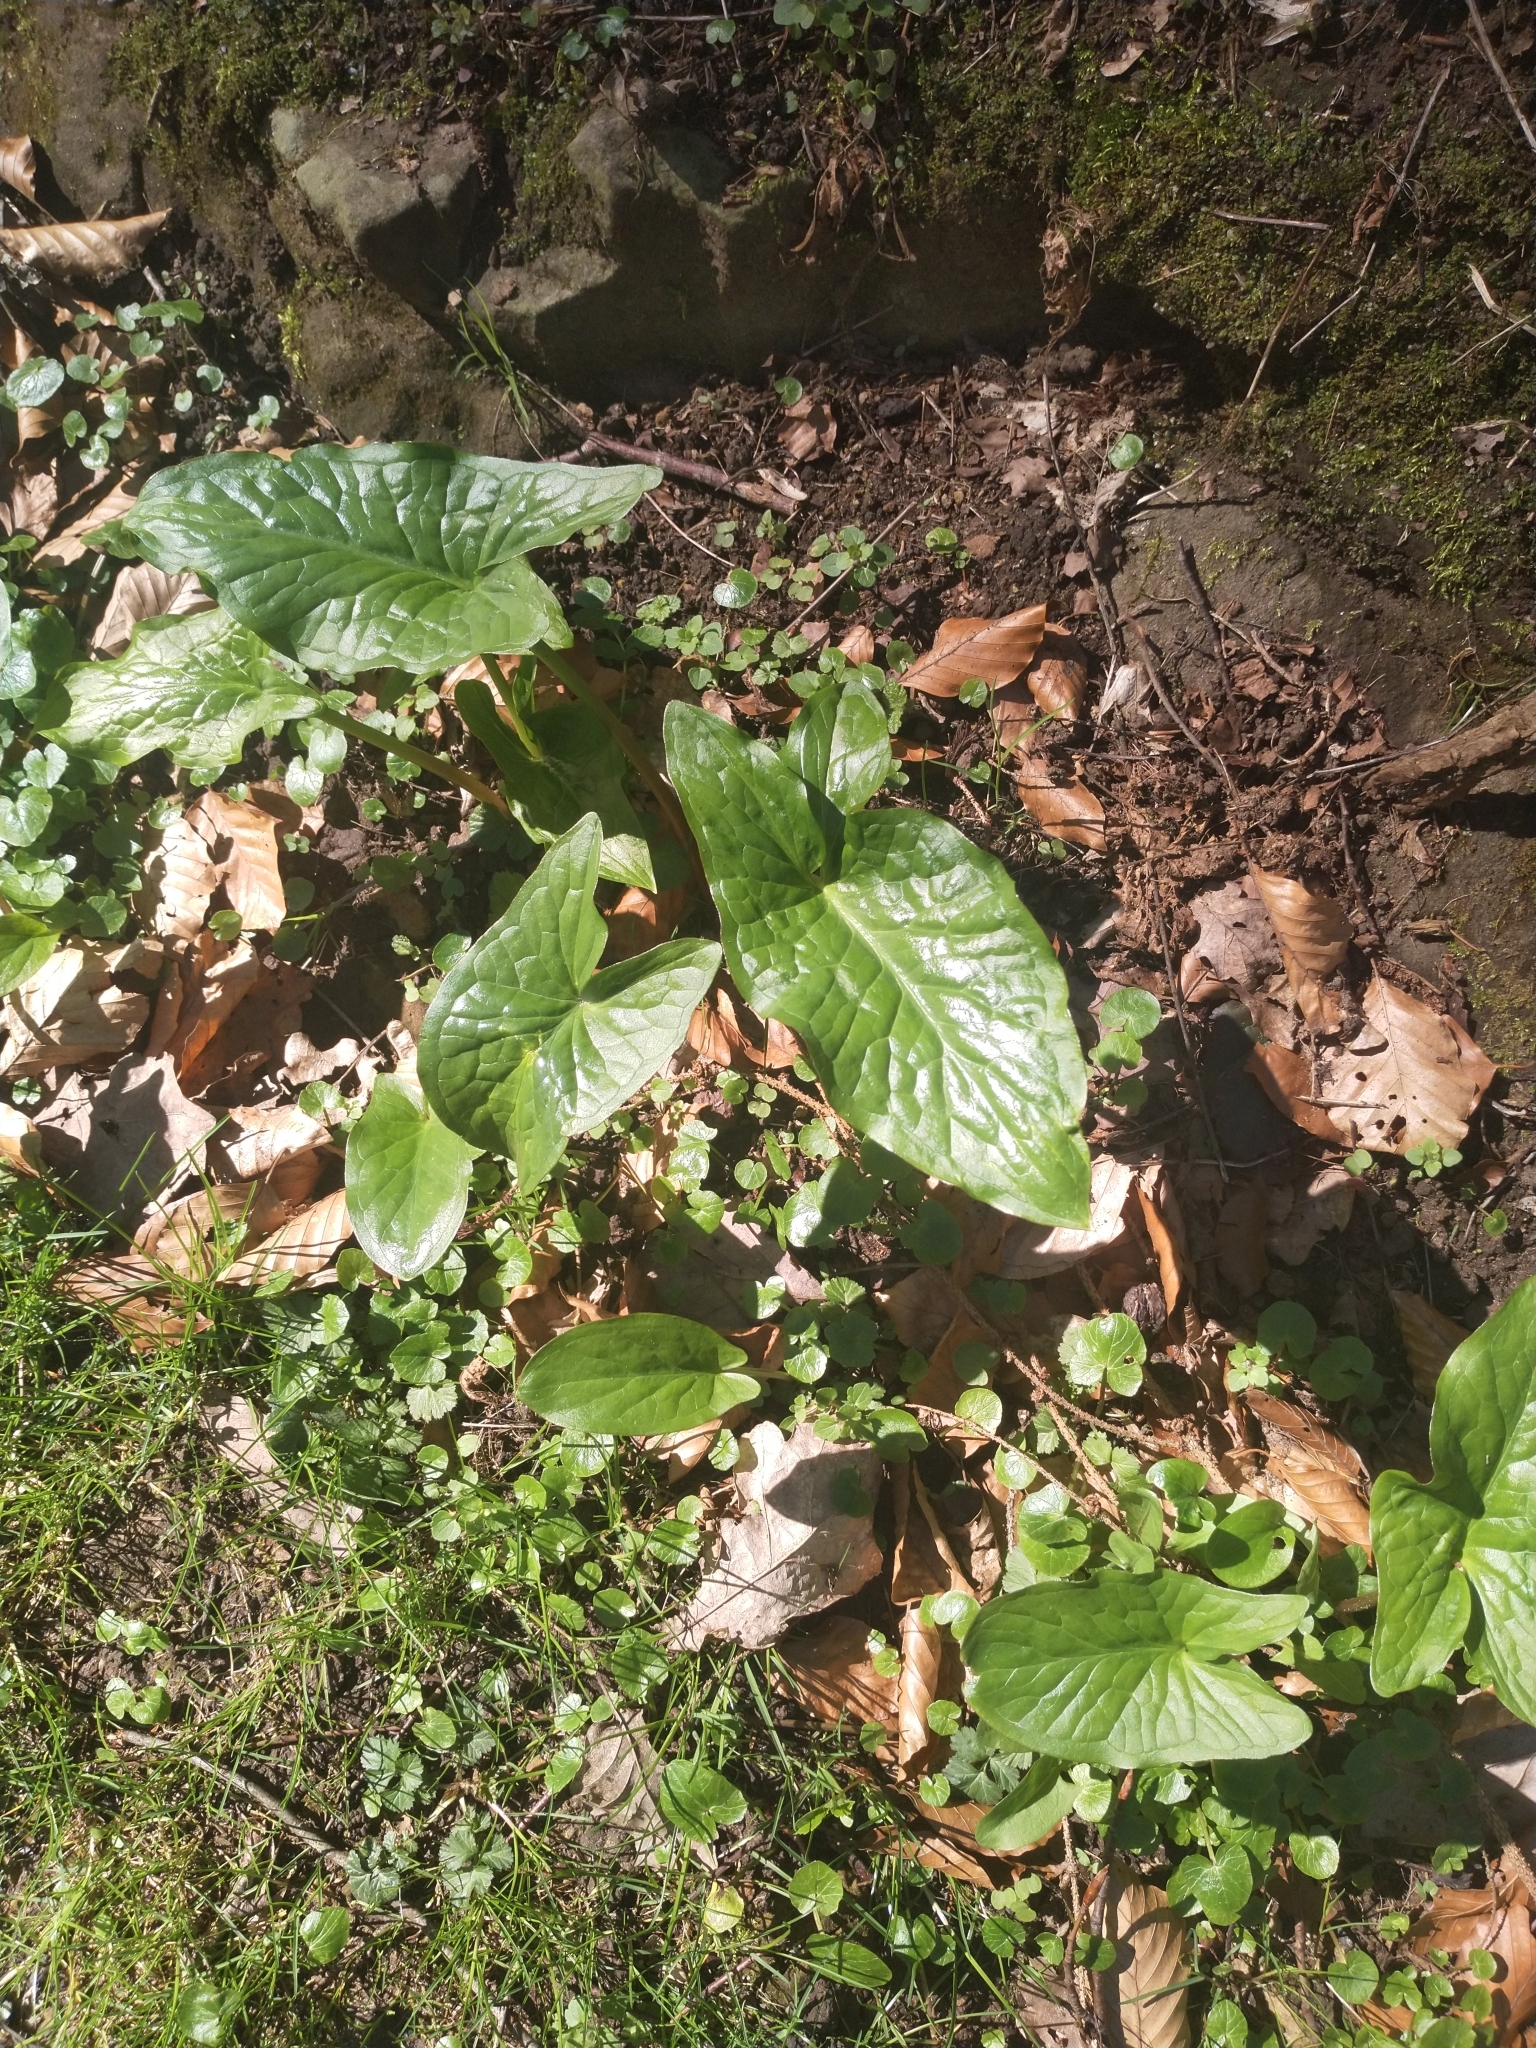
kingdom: Plantae
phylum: Tracheophyta
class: Liliopsida
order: Alismatales
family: Araceae
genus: Arum
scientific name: Arum maculatum
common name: Lords-and-ladies
